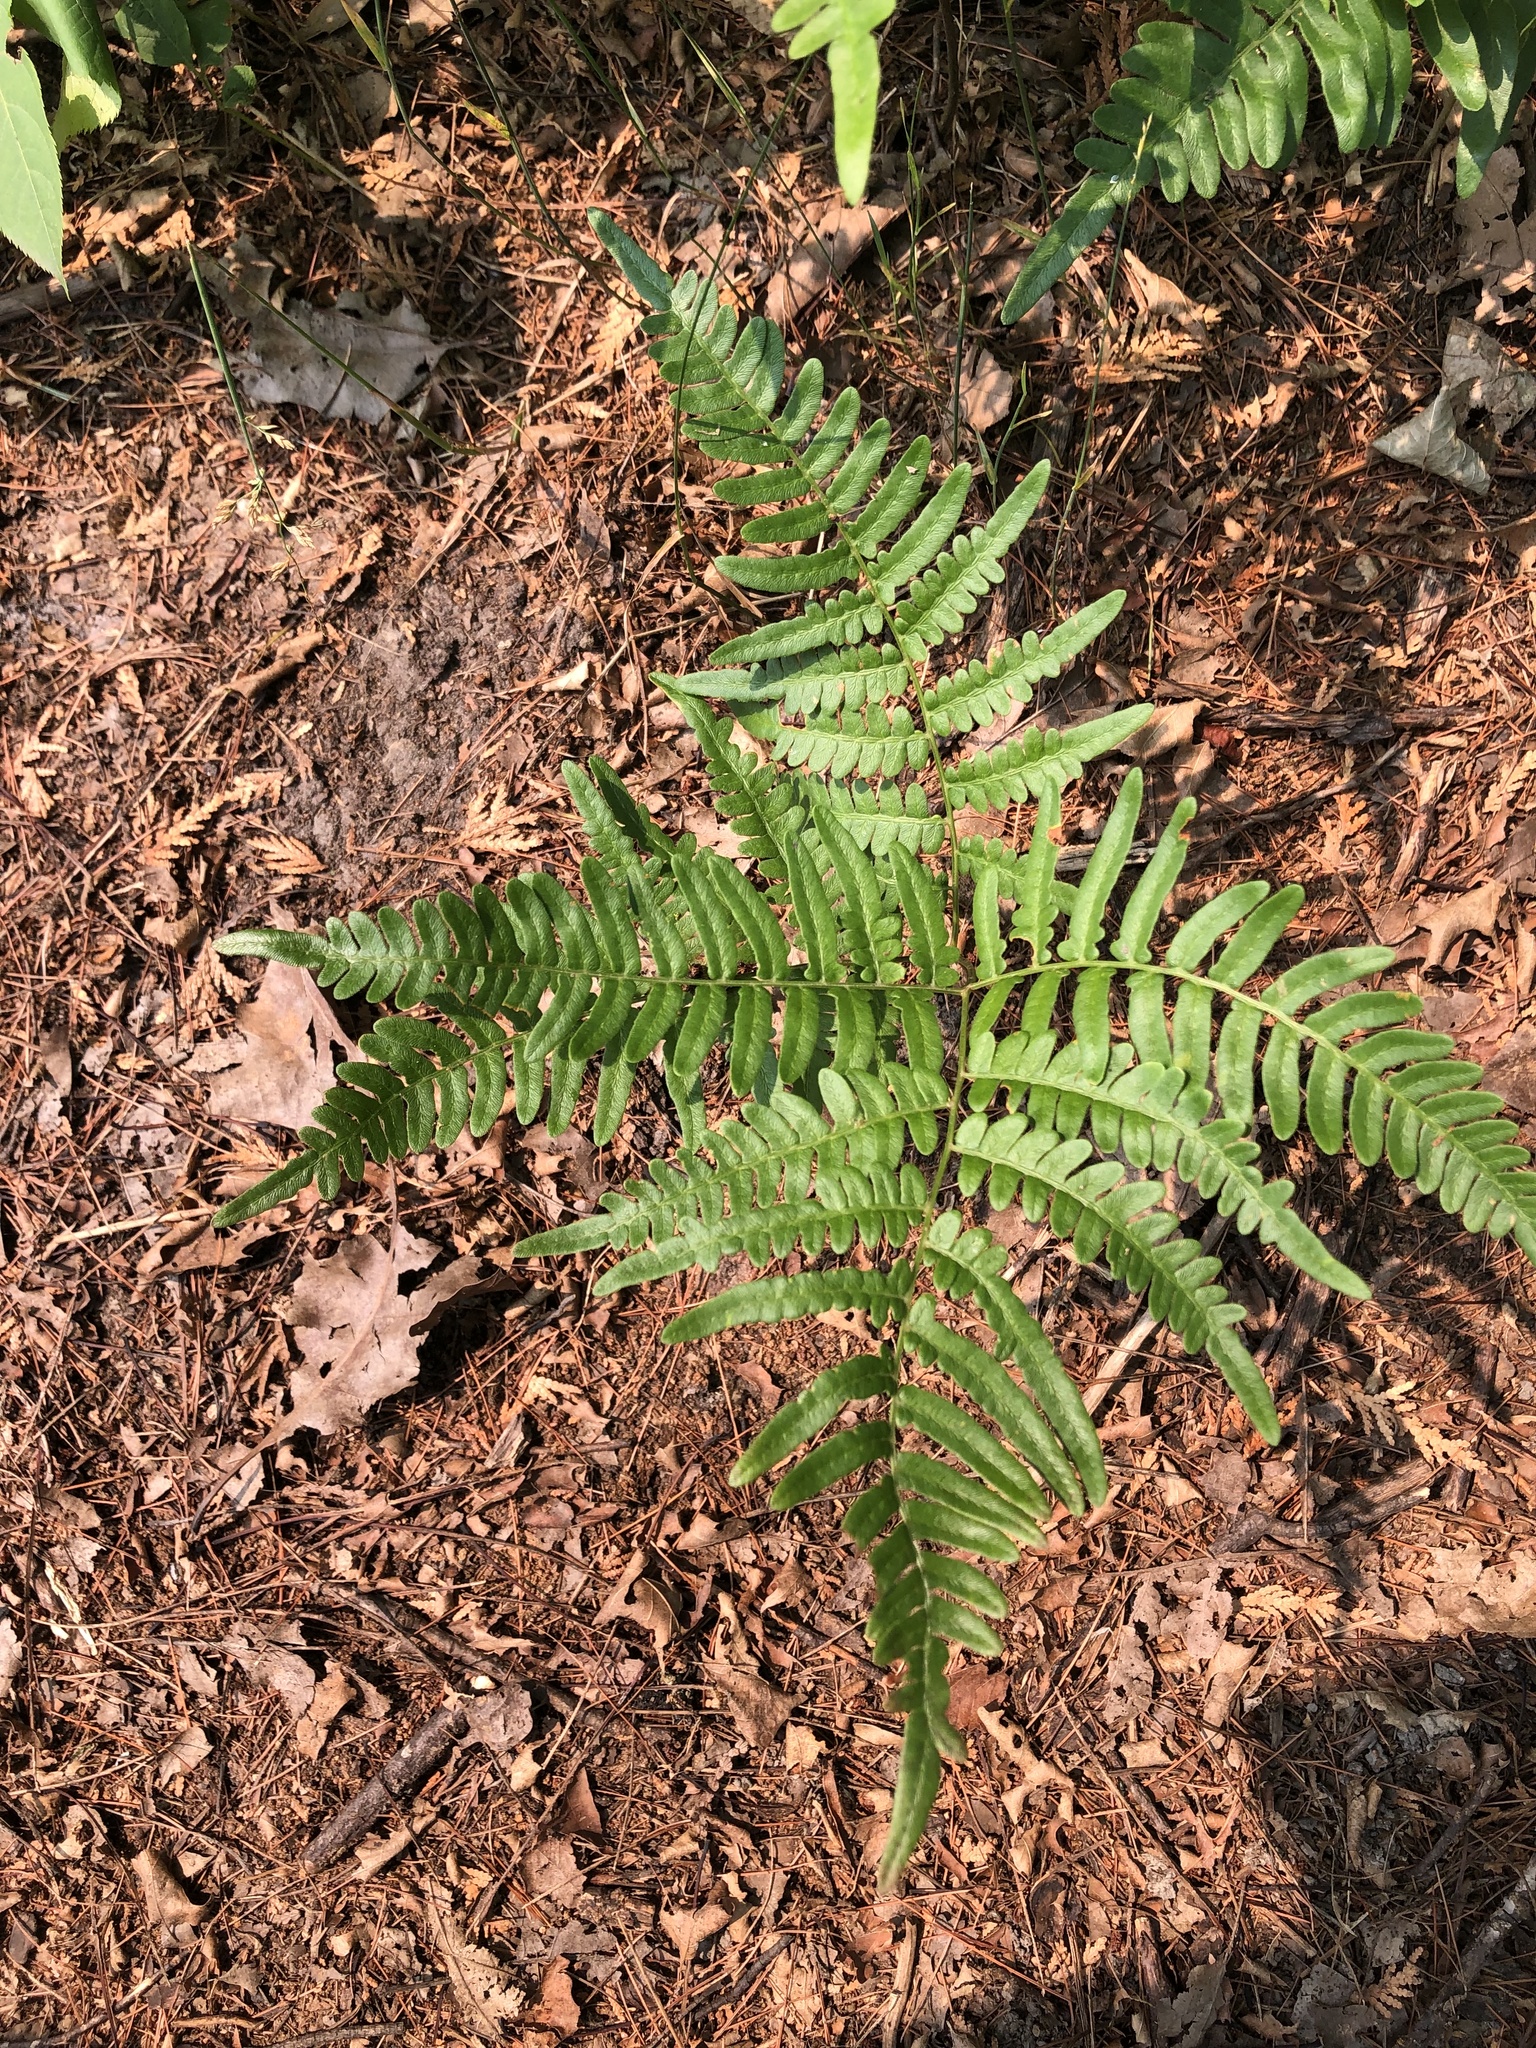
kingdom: Plantae
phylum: Tracheophyta
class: Polypodiopsida
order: Polypodiales
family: Dennstaedtiaceae
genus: Pteridium
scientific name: Pteridium aquilinum
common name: Bracken
